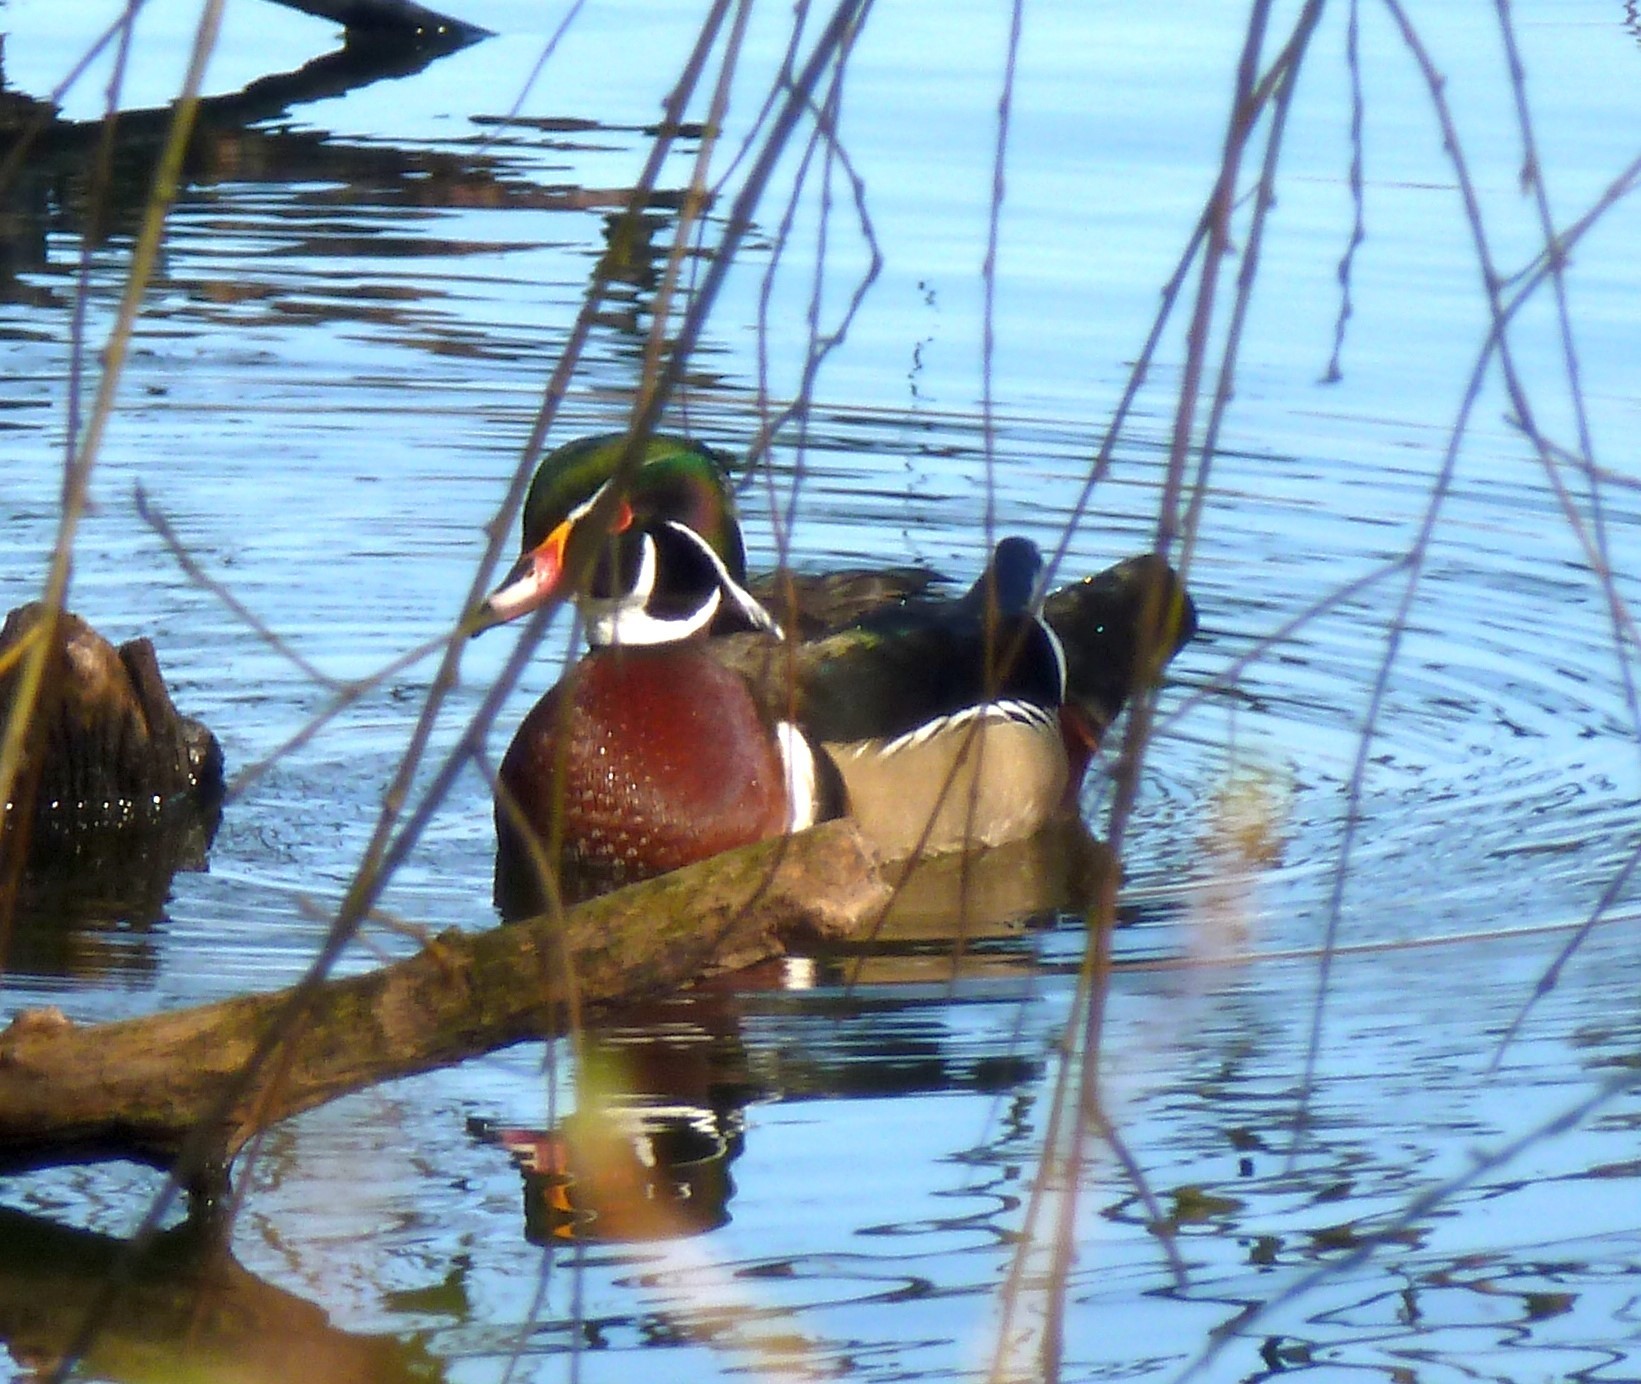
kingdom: Animalia
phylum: Chordata
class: Aves
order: Anseriformes
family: Anatidae
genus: Aix
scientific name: Aix sponsa
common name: Wood duck
